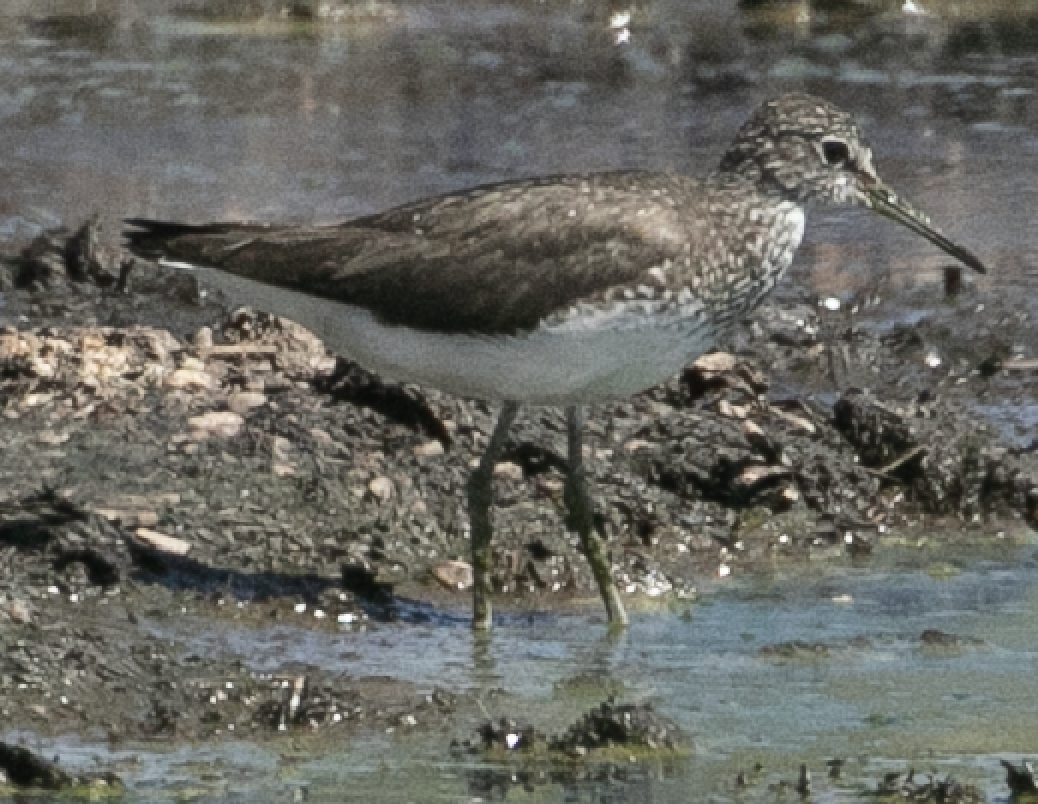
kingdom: Animalia
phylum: Chordata
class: Aves
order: Charadriiformes
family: Scolopacidae
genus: Tringa
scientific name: Tringa ochropus
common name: Green sandpiper
